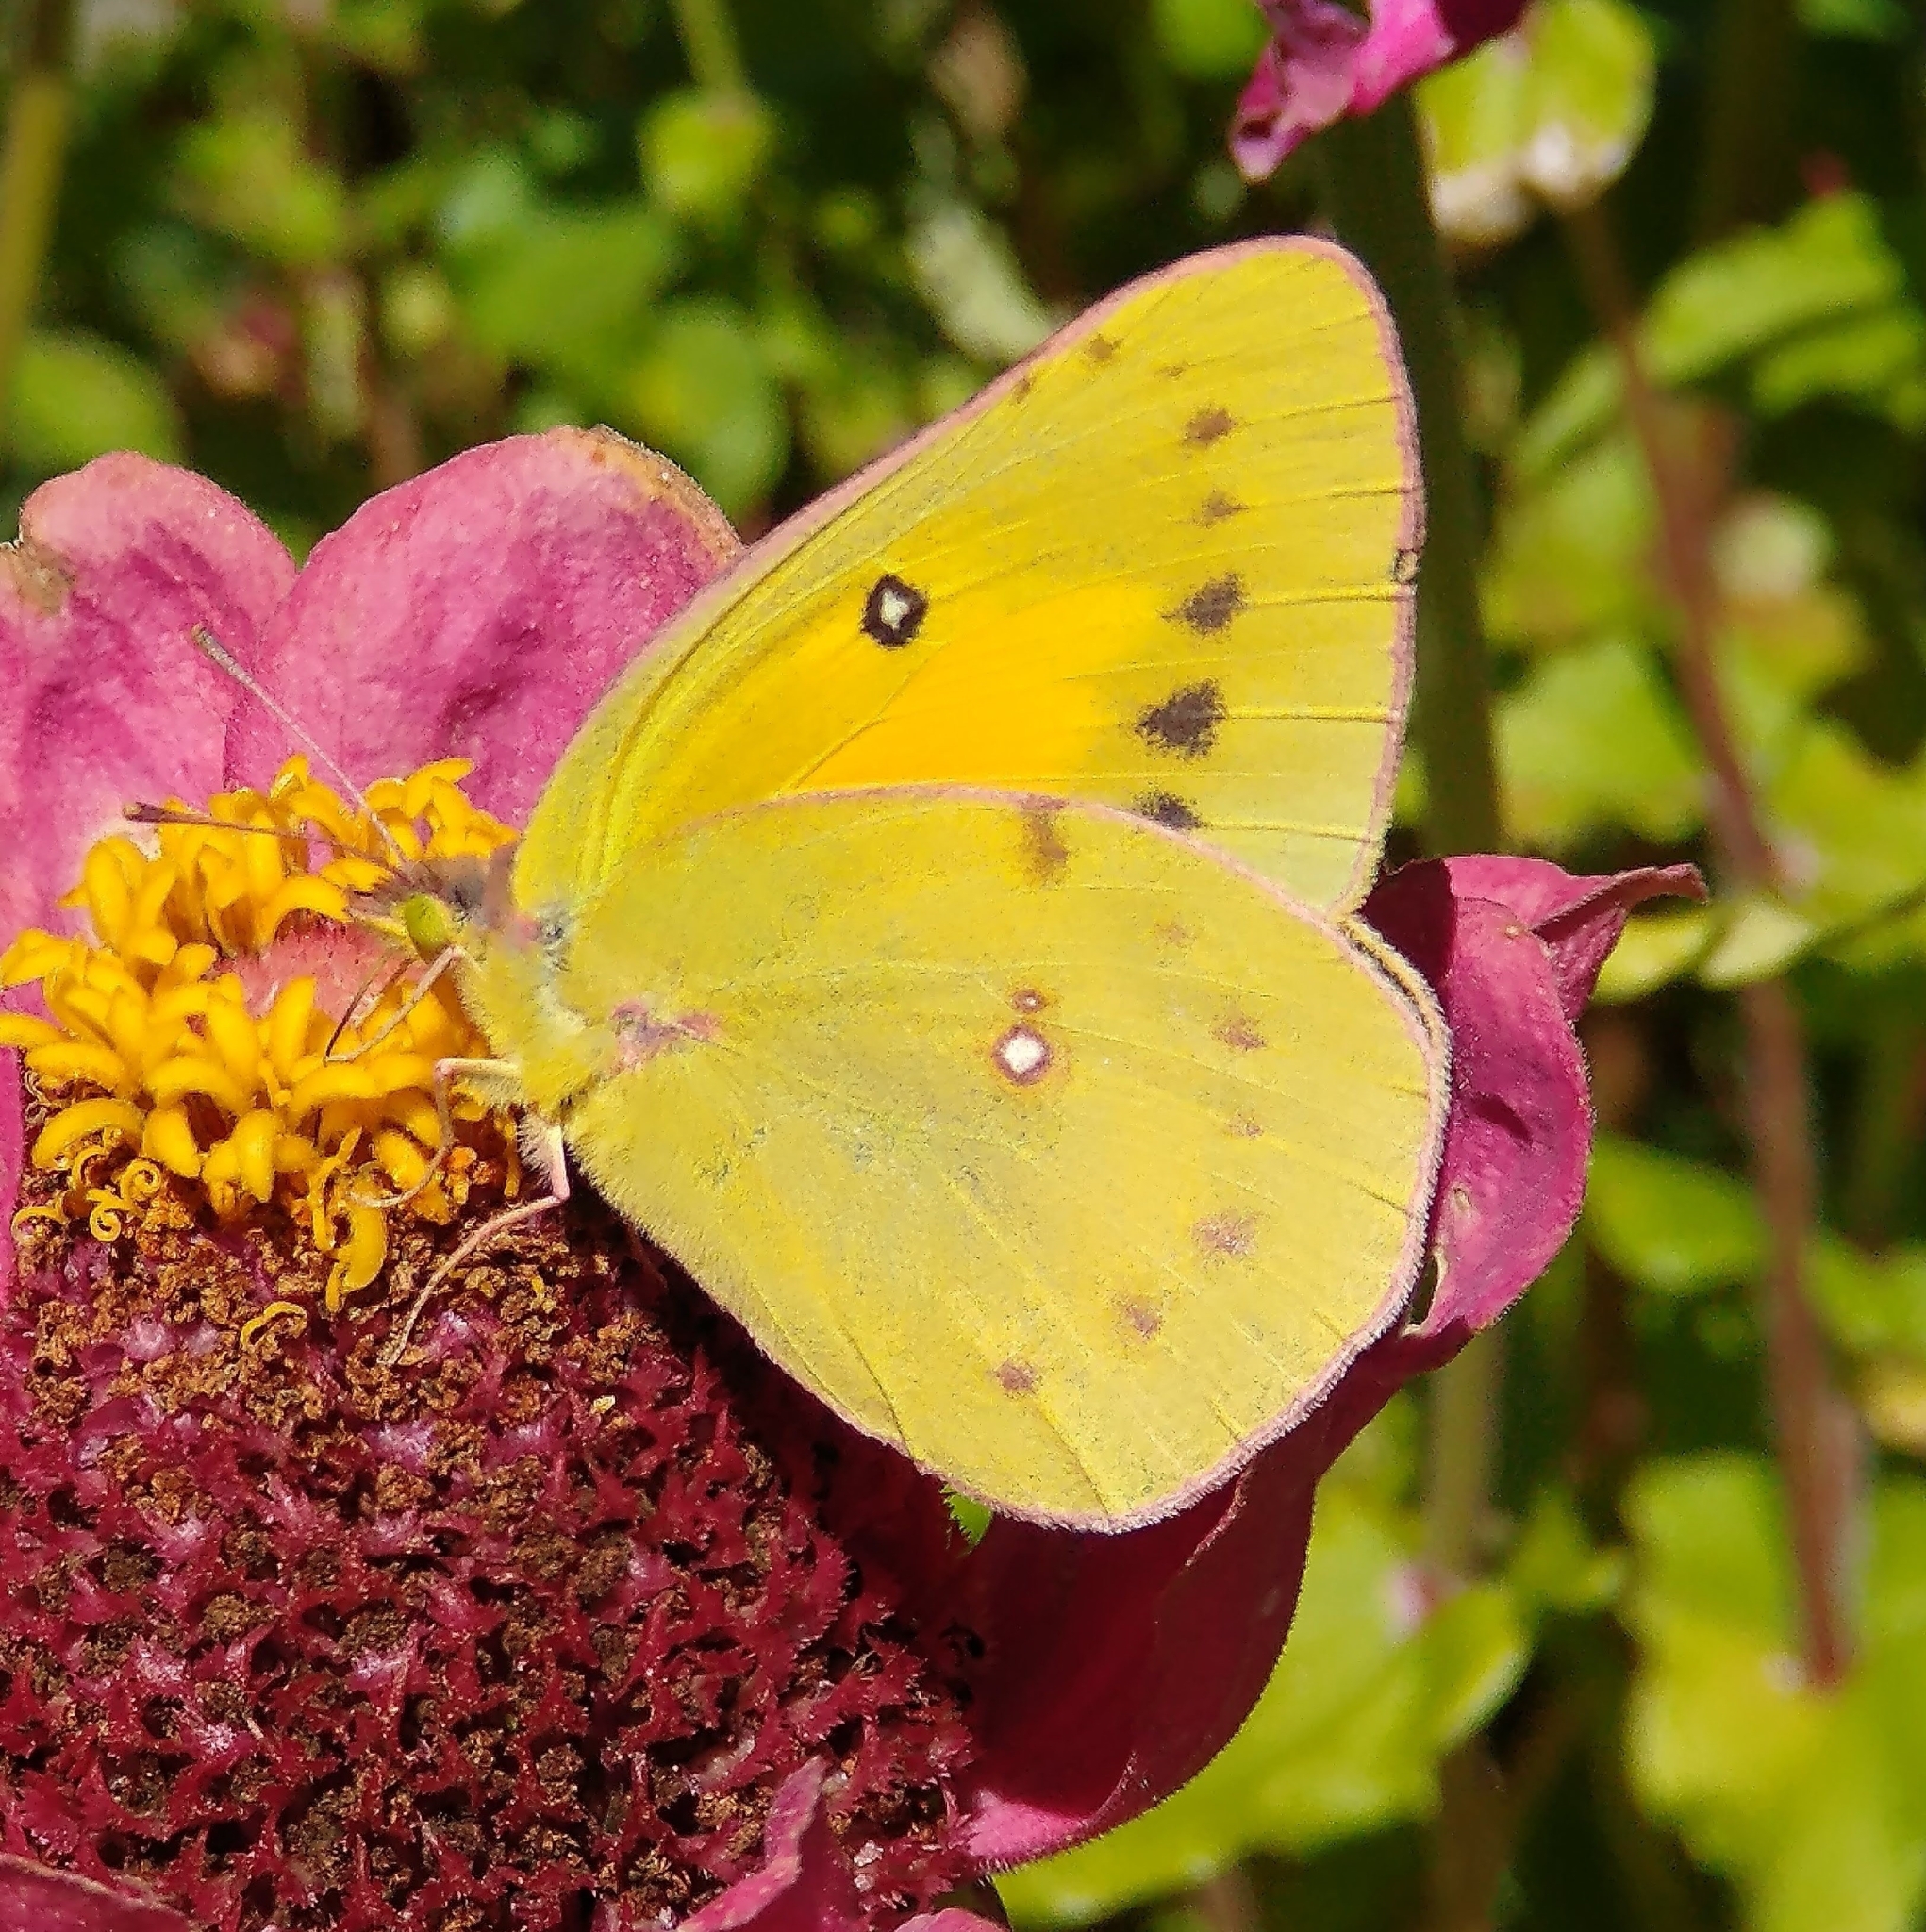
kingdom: Animalia
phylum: Arthropoda
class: Insecta
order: Lepidoptera
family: Pieridae
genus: Colias
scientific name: Colias eurytheme
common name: Alfalfa butterfly
